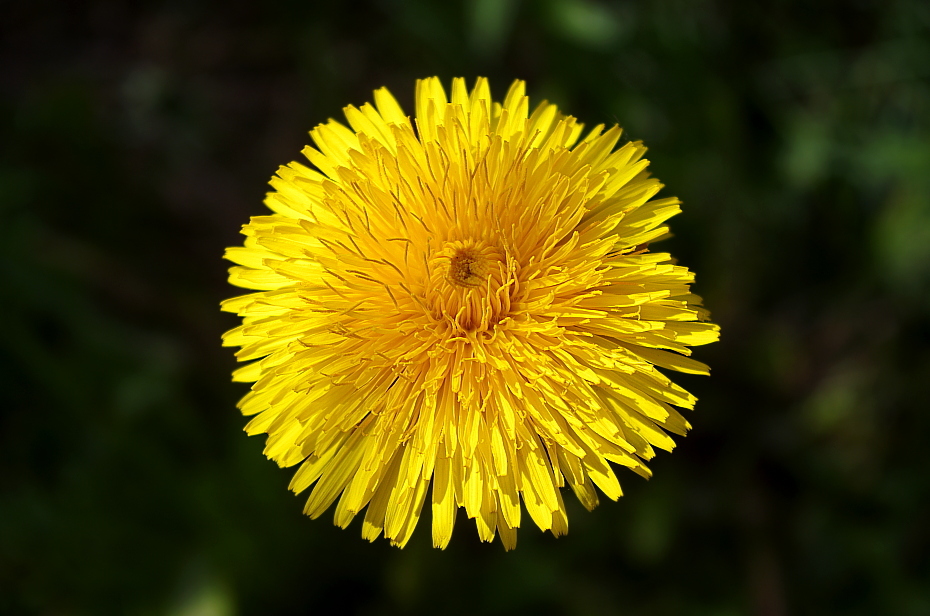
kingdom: Plantae
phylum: Tracheophyta
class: Magnoliopsida
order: Asterales
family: Asteraceae
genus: Taraxacum
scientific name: Taraxacum officinale
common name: Common dandelion
